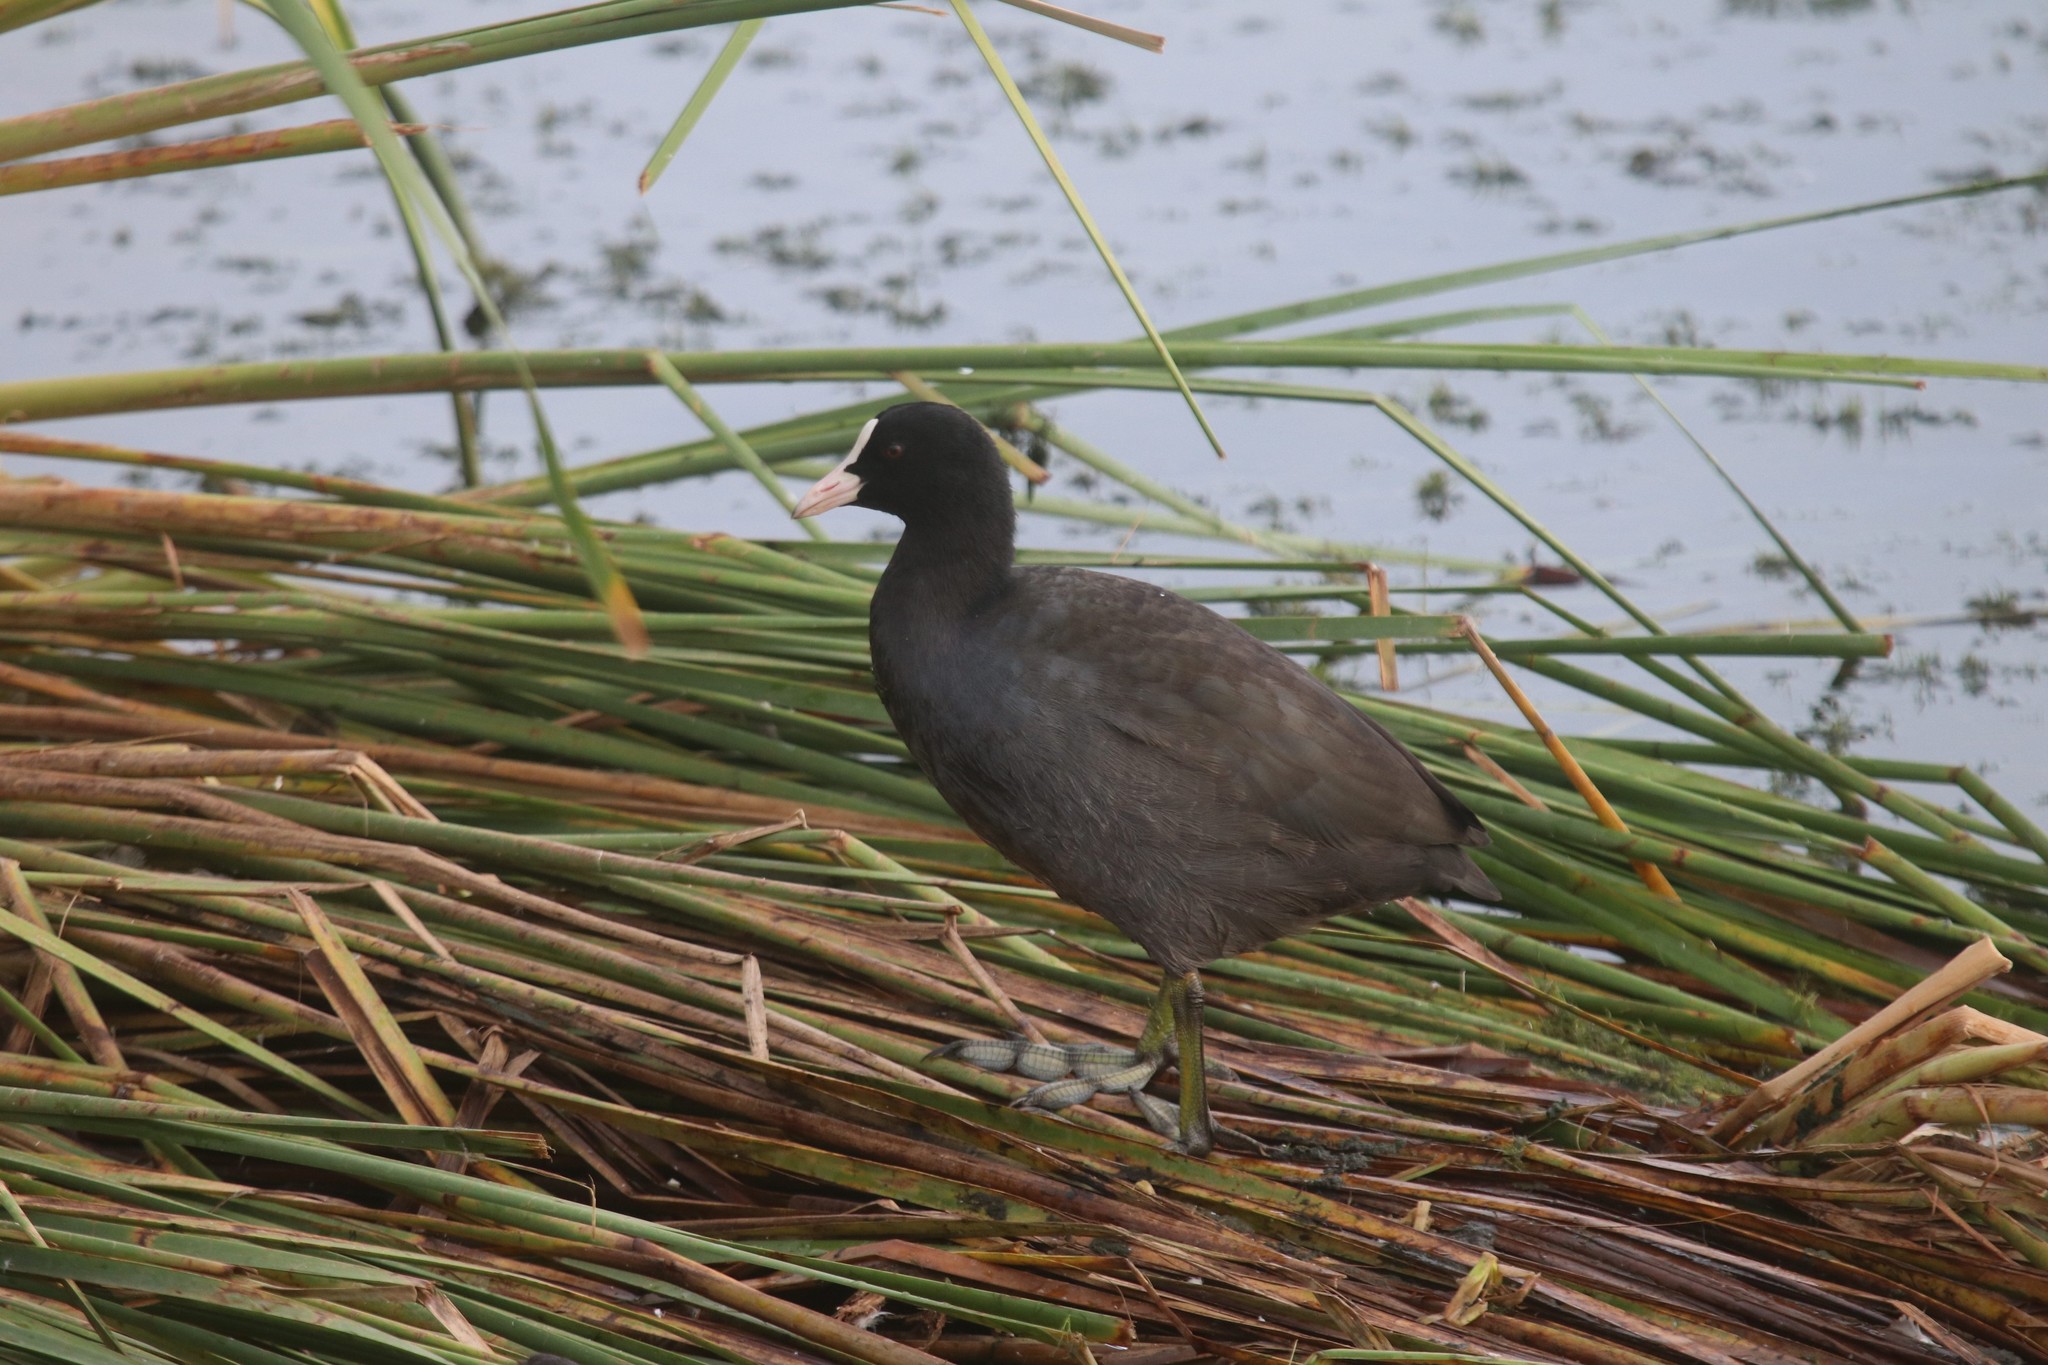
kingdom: Animalia
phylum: Chordata
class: Aves
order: Gruiformes
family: Rallidae
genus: Fulica
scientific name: Fulica atra
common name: Eurasian coot
